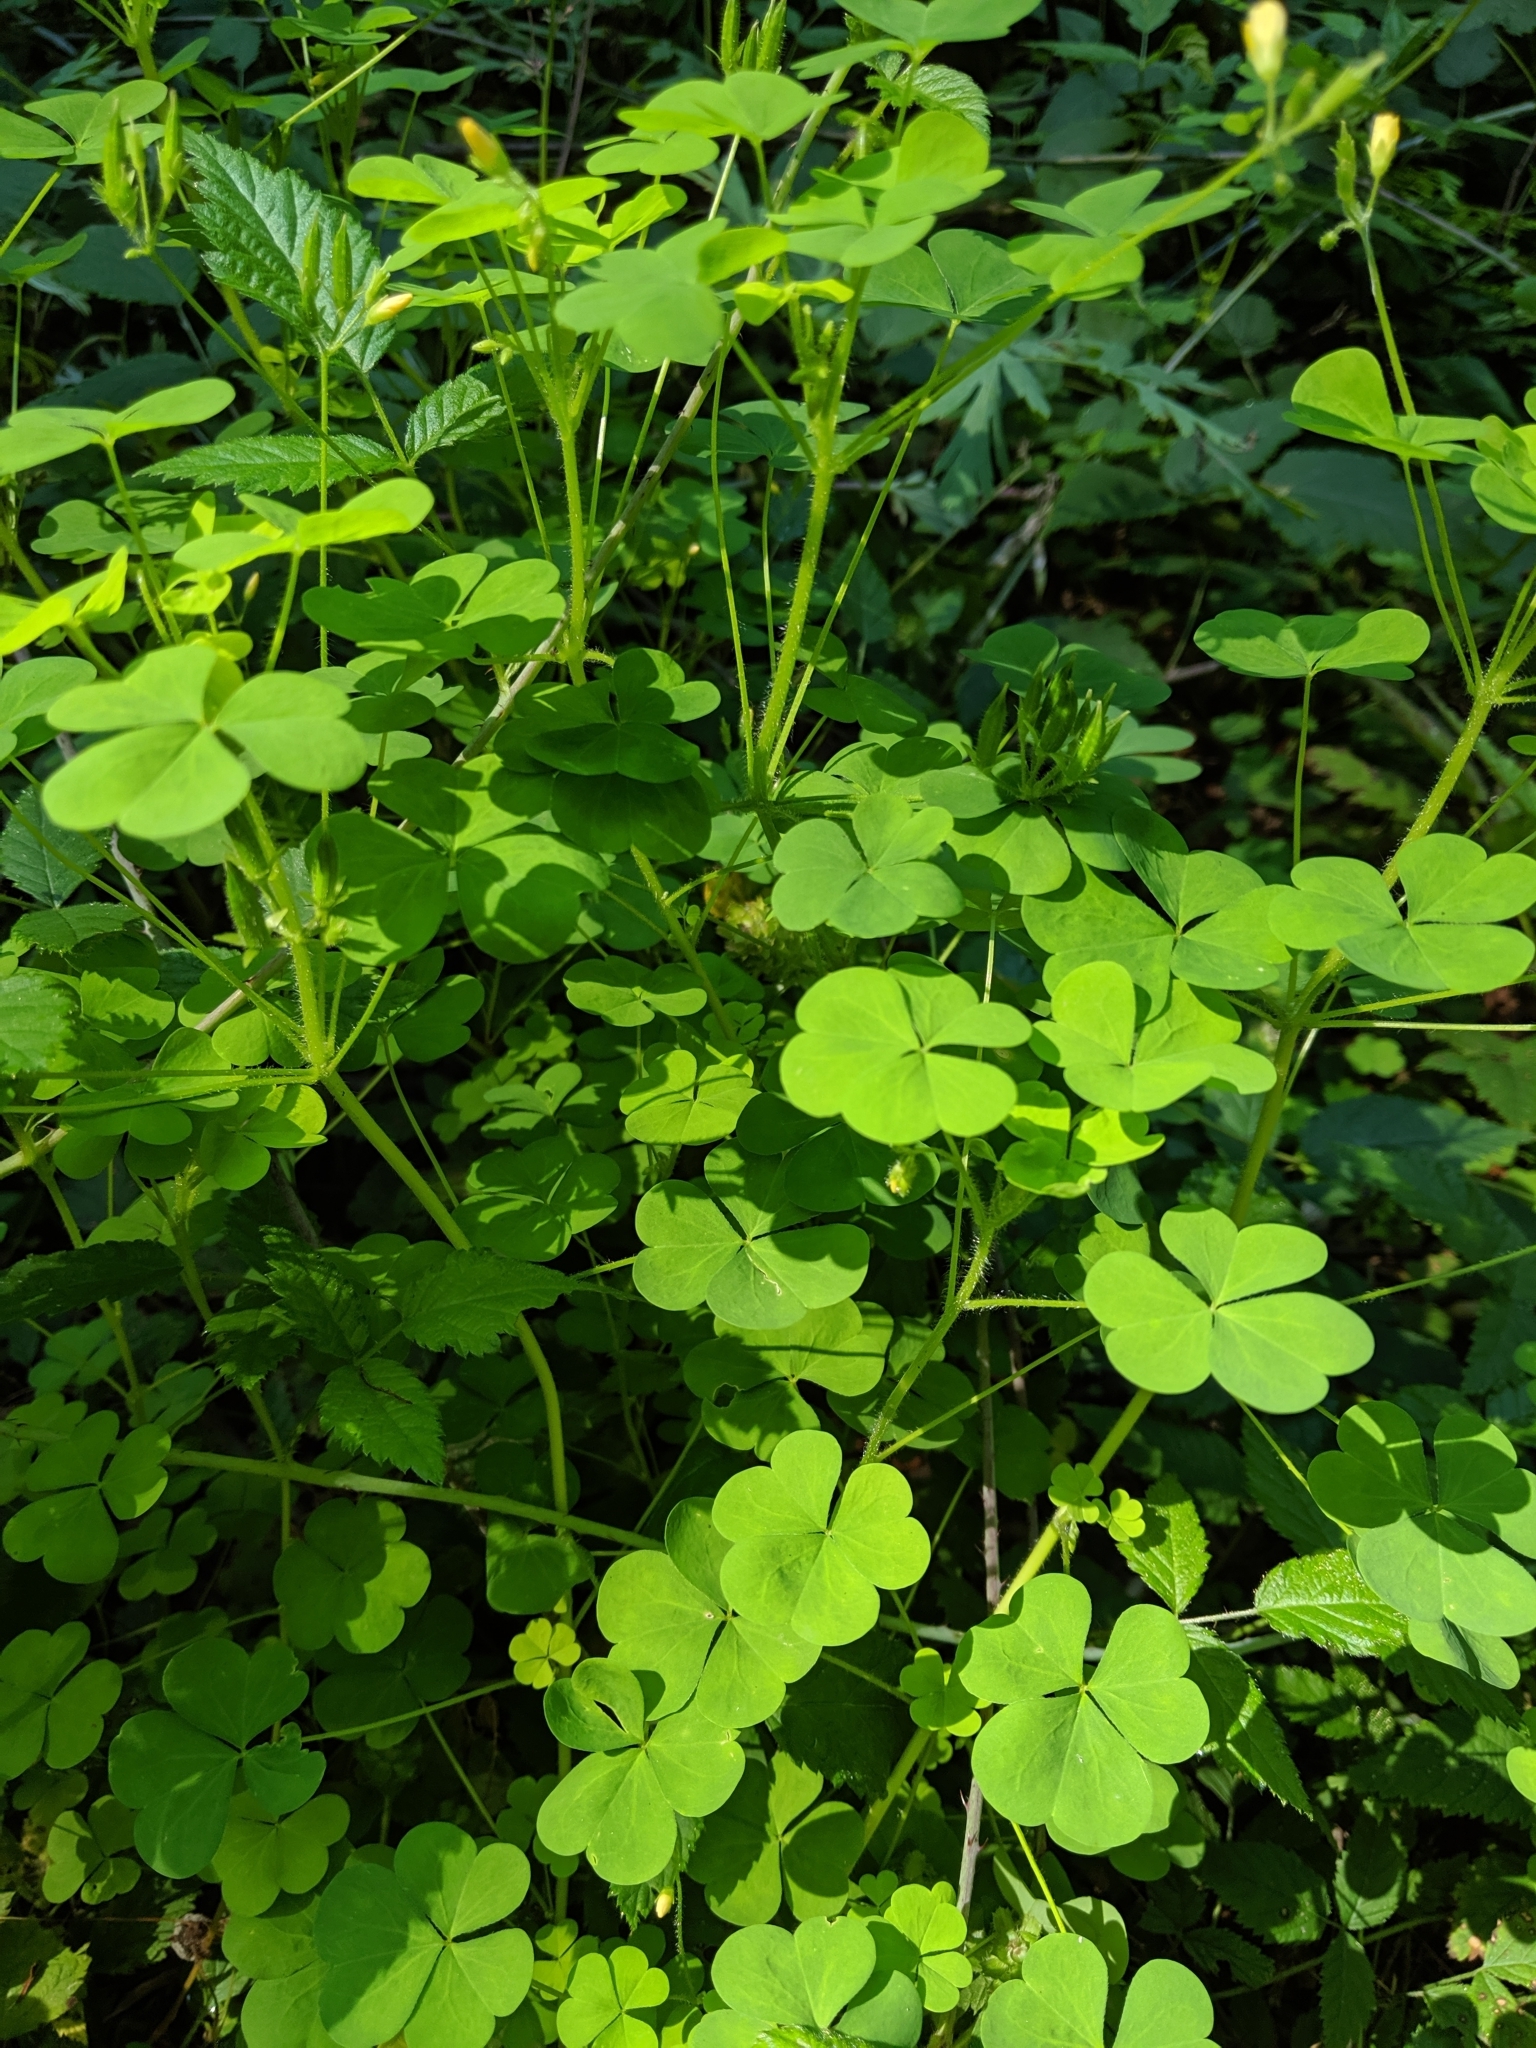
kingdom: Plantae
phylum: Tracheophyta
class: Magnoliopsida
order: Oxalidales
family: Oxalidaceae
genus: Oxalis
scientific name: Oxalis stricta
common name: Upright yellow-sorrel
